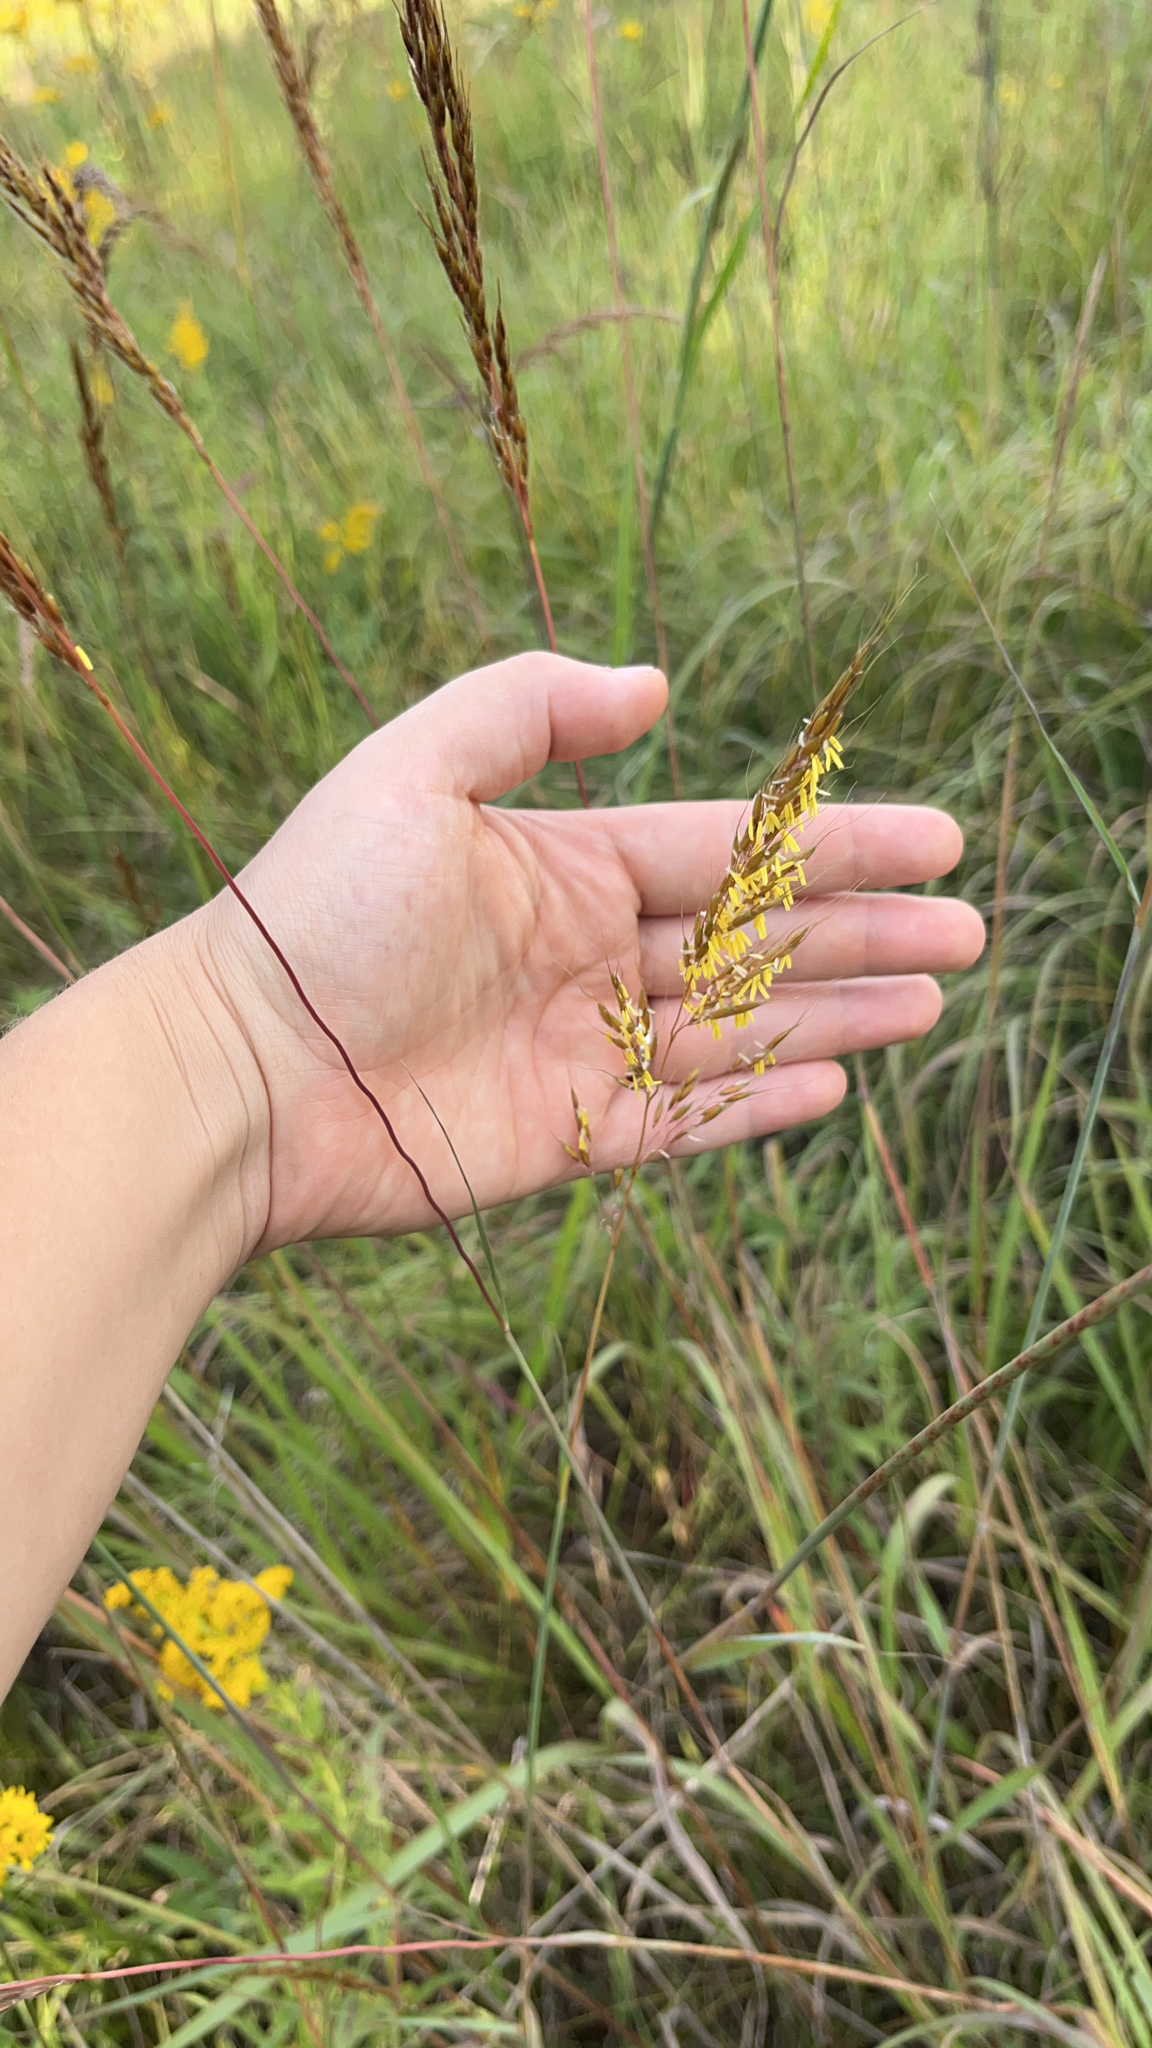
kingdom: Plantae
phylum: Tracheophyta
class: Liliopsida
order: Poales
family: Poaceae
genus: Sorghastrum
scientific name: Sorghastrum nutans
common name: Indian grass
